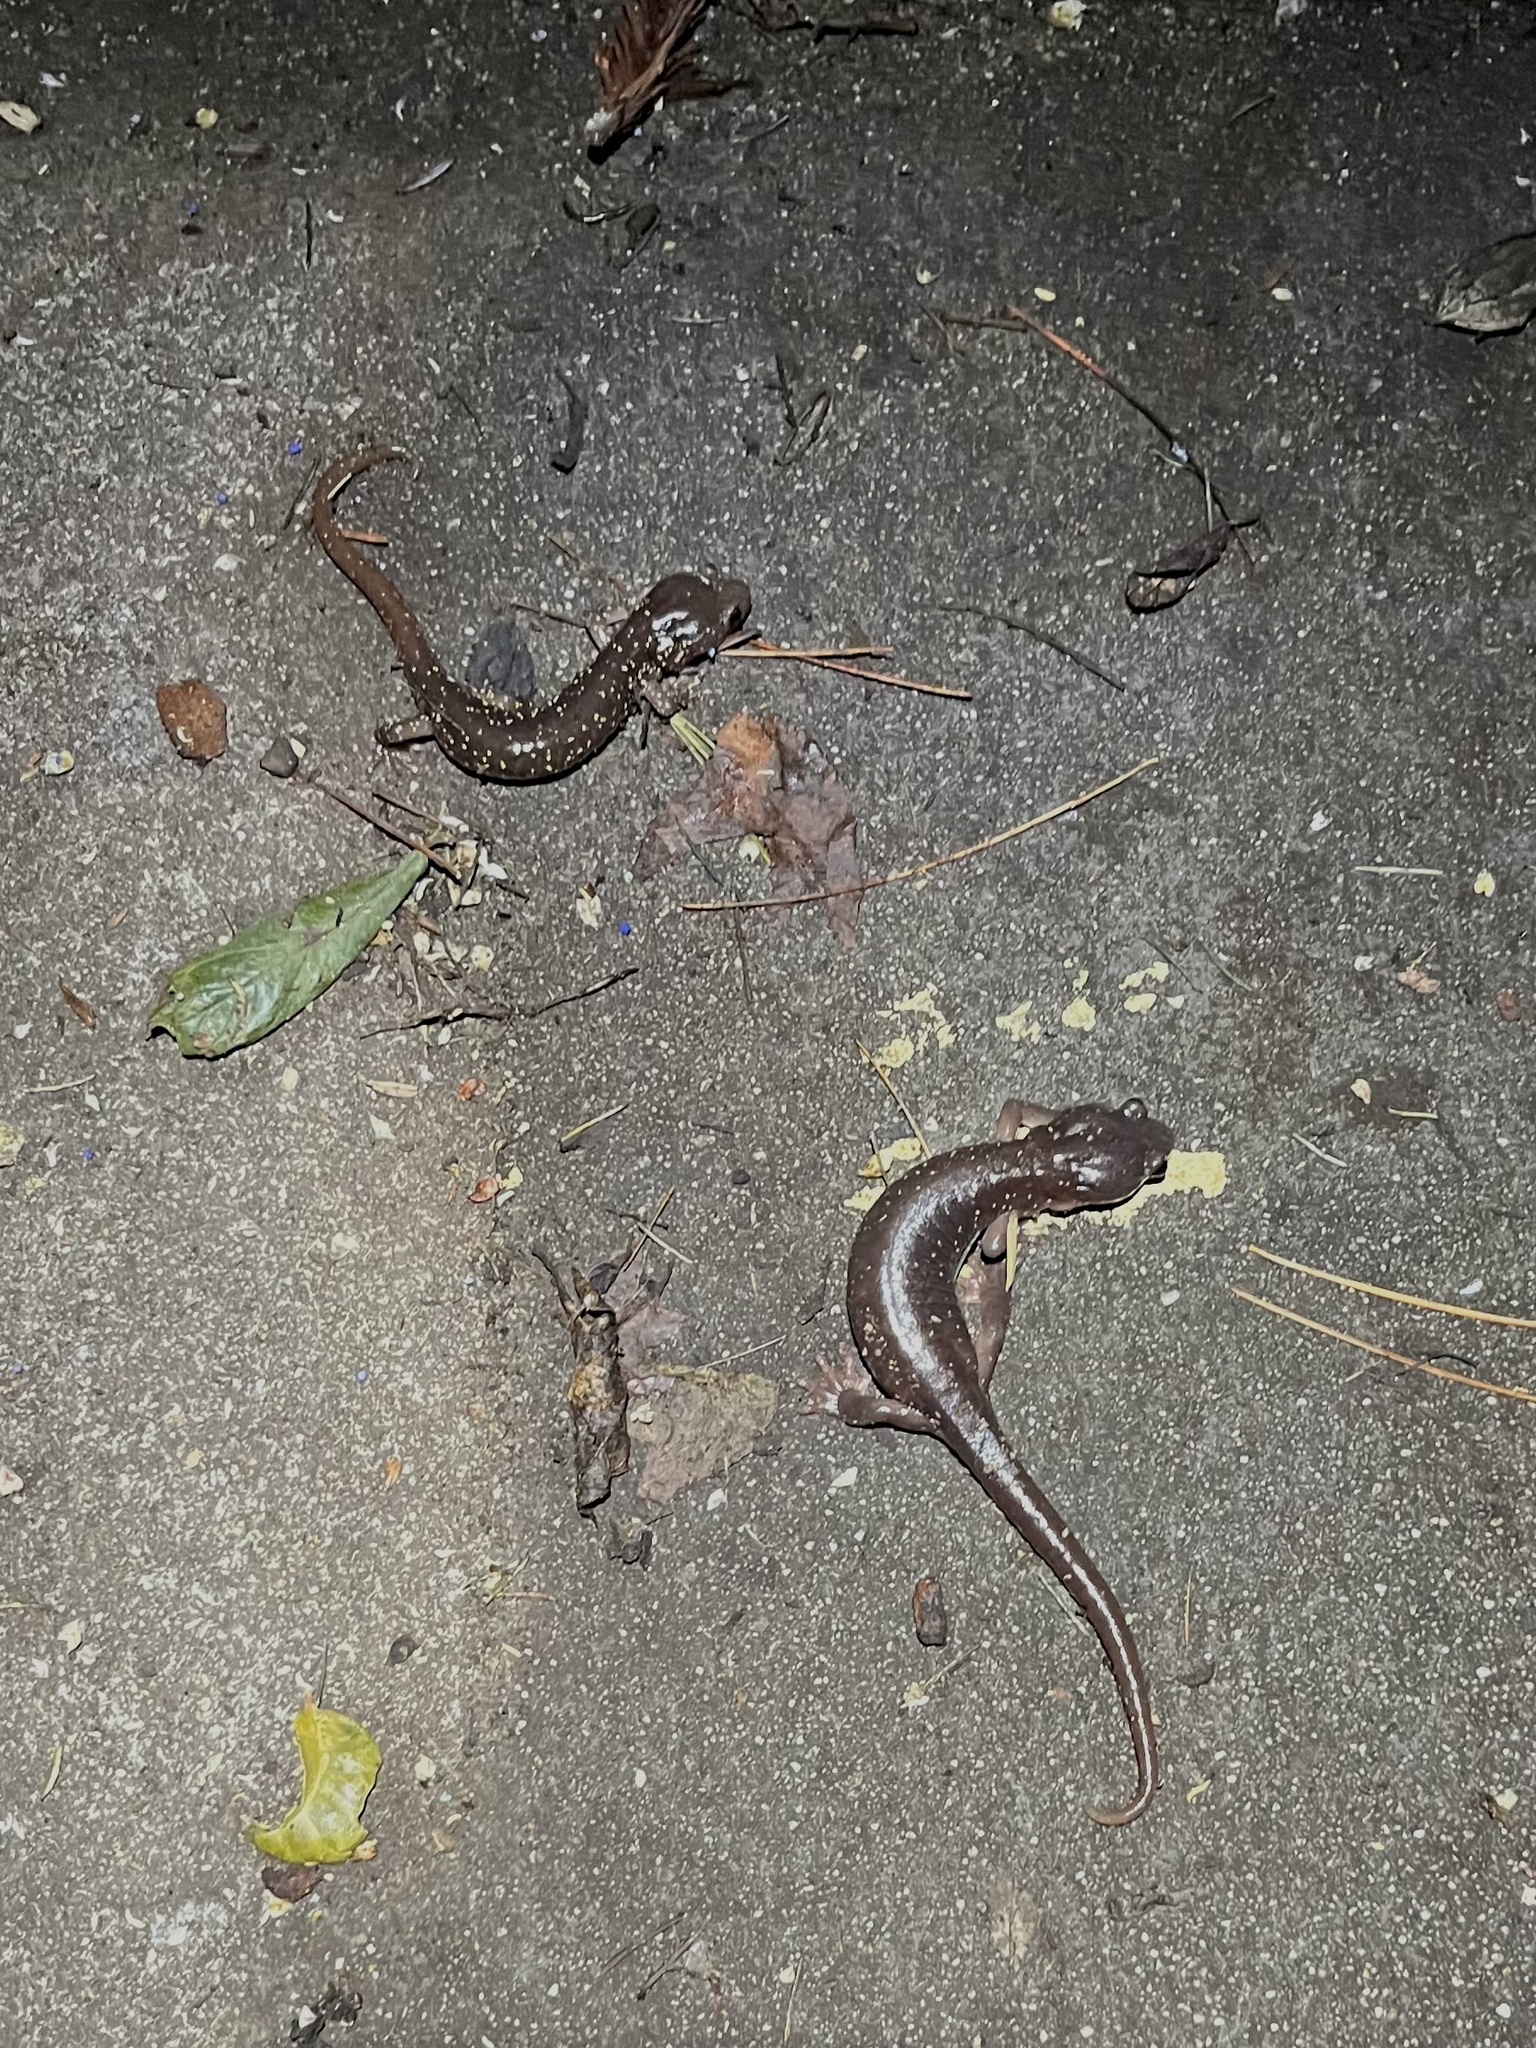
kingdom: Animalia
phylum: Chordata
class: Amphibia
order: Caudata
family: Plethodontidae
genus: Aneides
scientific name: Aneides lugubris
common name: Arboreal salamander
